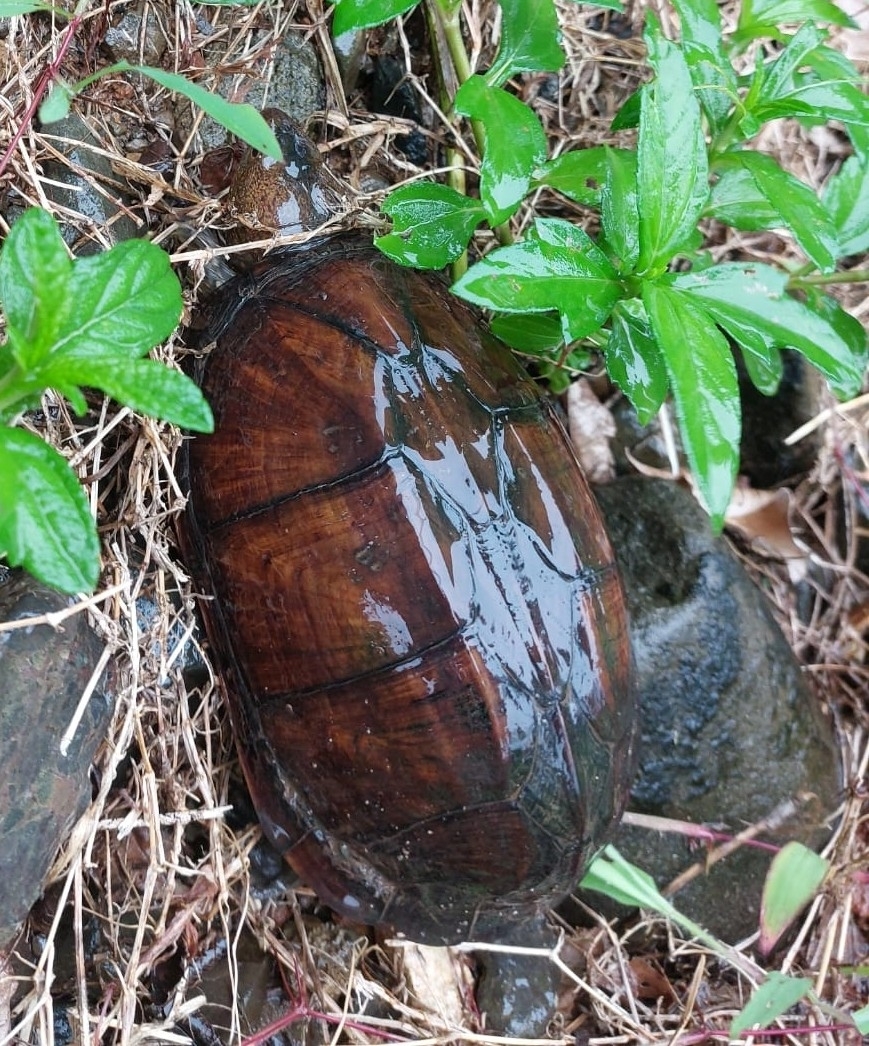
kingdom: Animalia
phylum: Chordata
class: Testudines
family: Kinosternidae
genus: Kinosternon
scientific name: Kinosternon scorpioides
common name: Scorpion mud turtle
